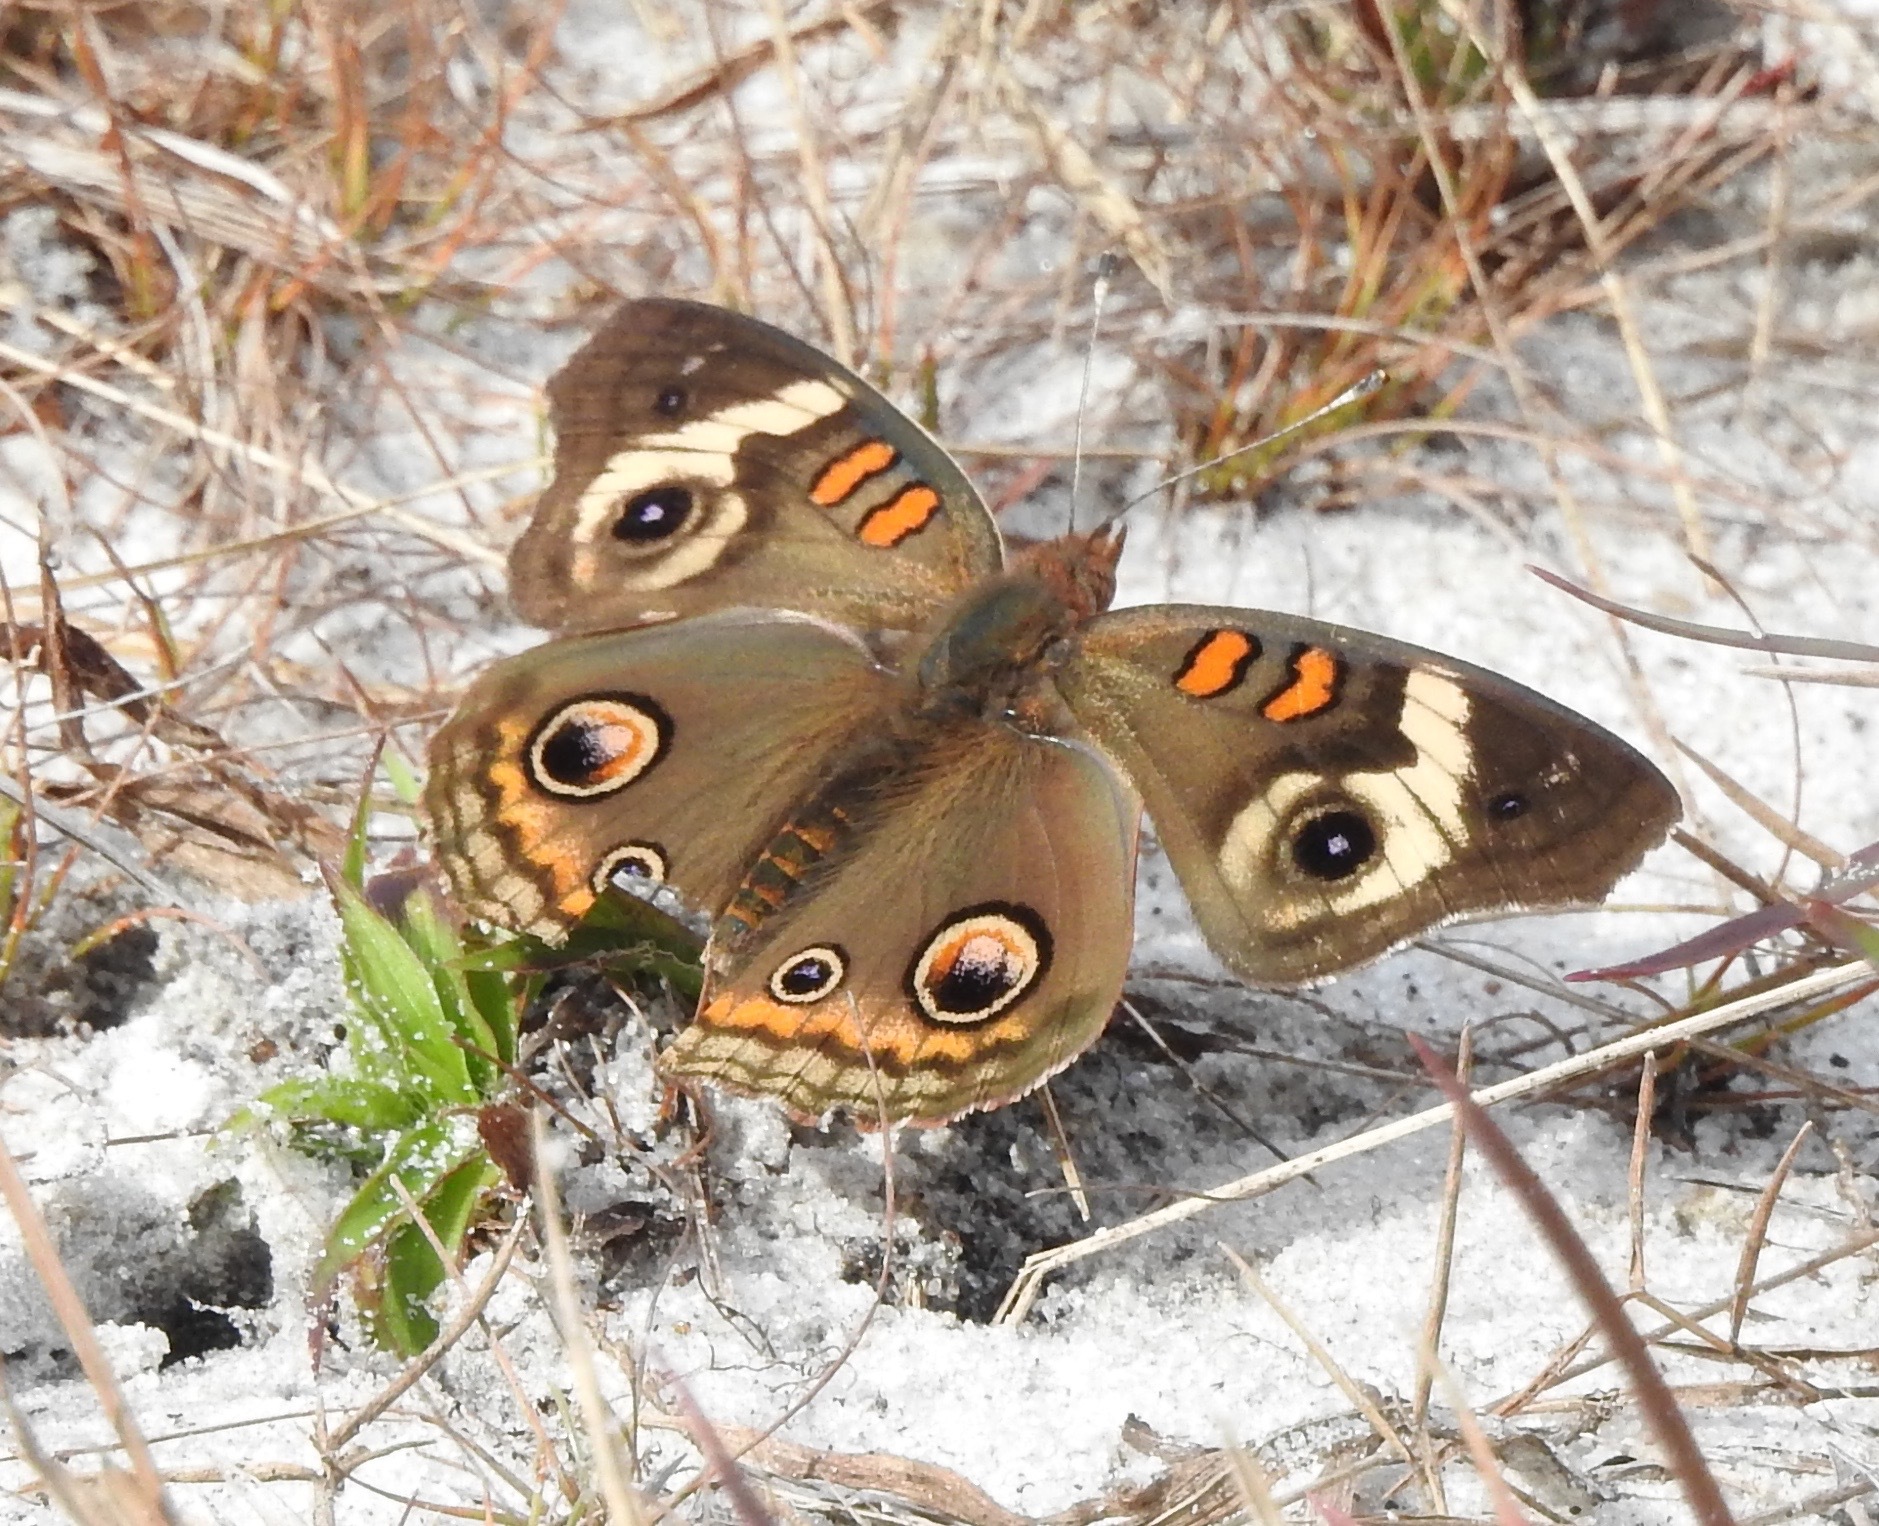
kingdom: Animalia
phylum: Arthropoda
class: Insecta
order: Lepidoptera
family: Nymphalidae
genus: Junonia
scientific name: Junonia coenia
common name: Common buckeye
